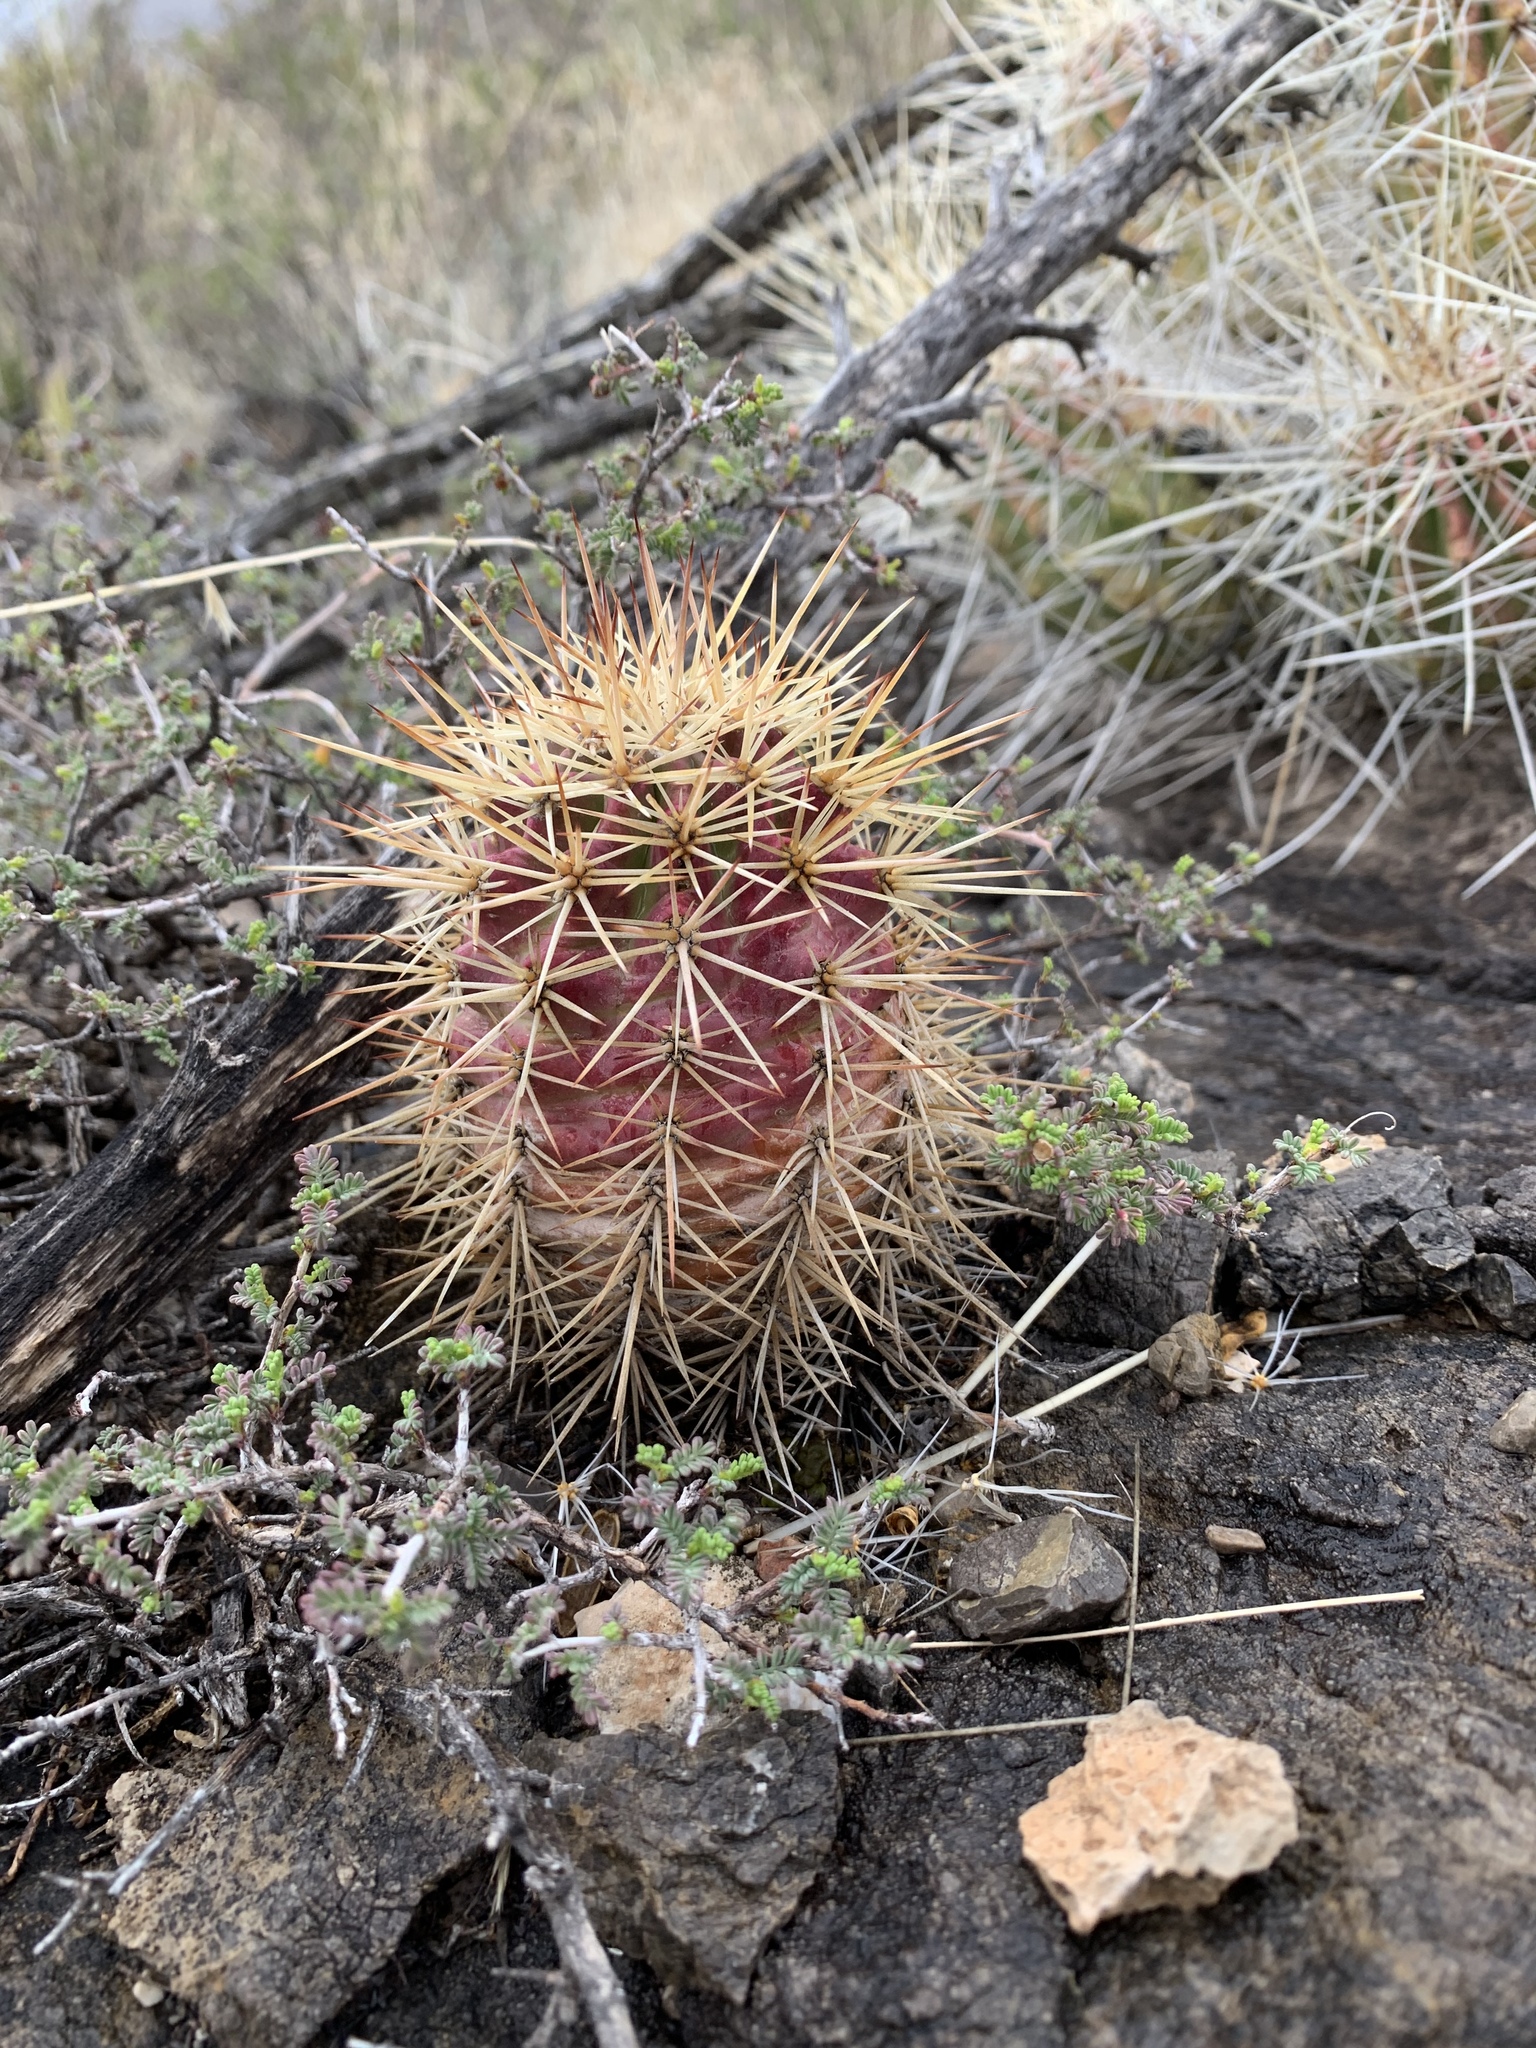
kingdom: Plantae
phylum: Tracheophyta
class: Magnoliopsida
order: Caryophyllales
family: Cactaceae
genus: Echinocereus
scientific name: Echinocereus coccineus
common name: Scarlet hedgehog cactus
